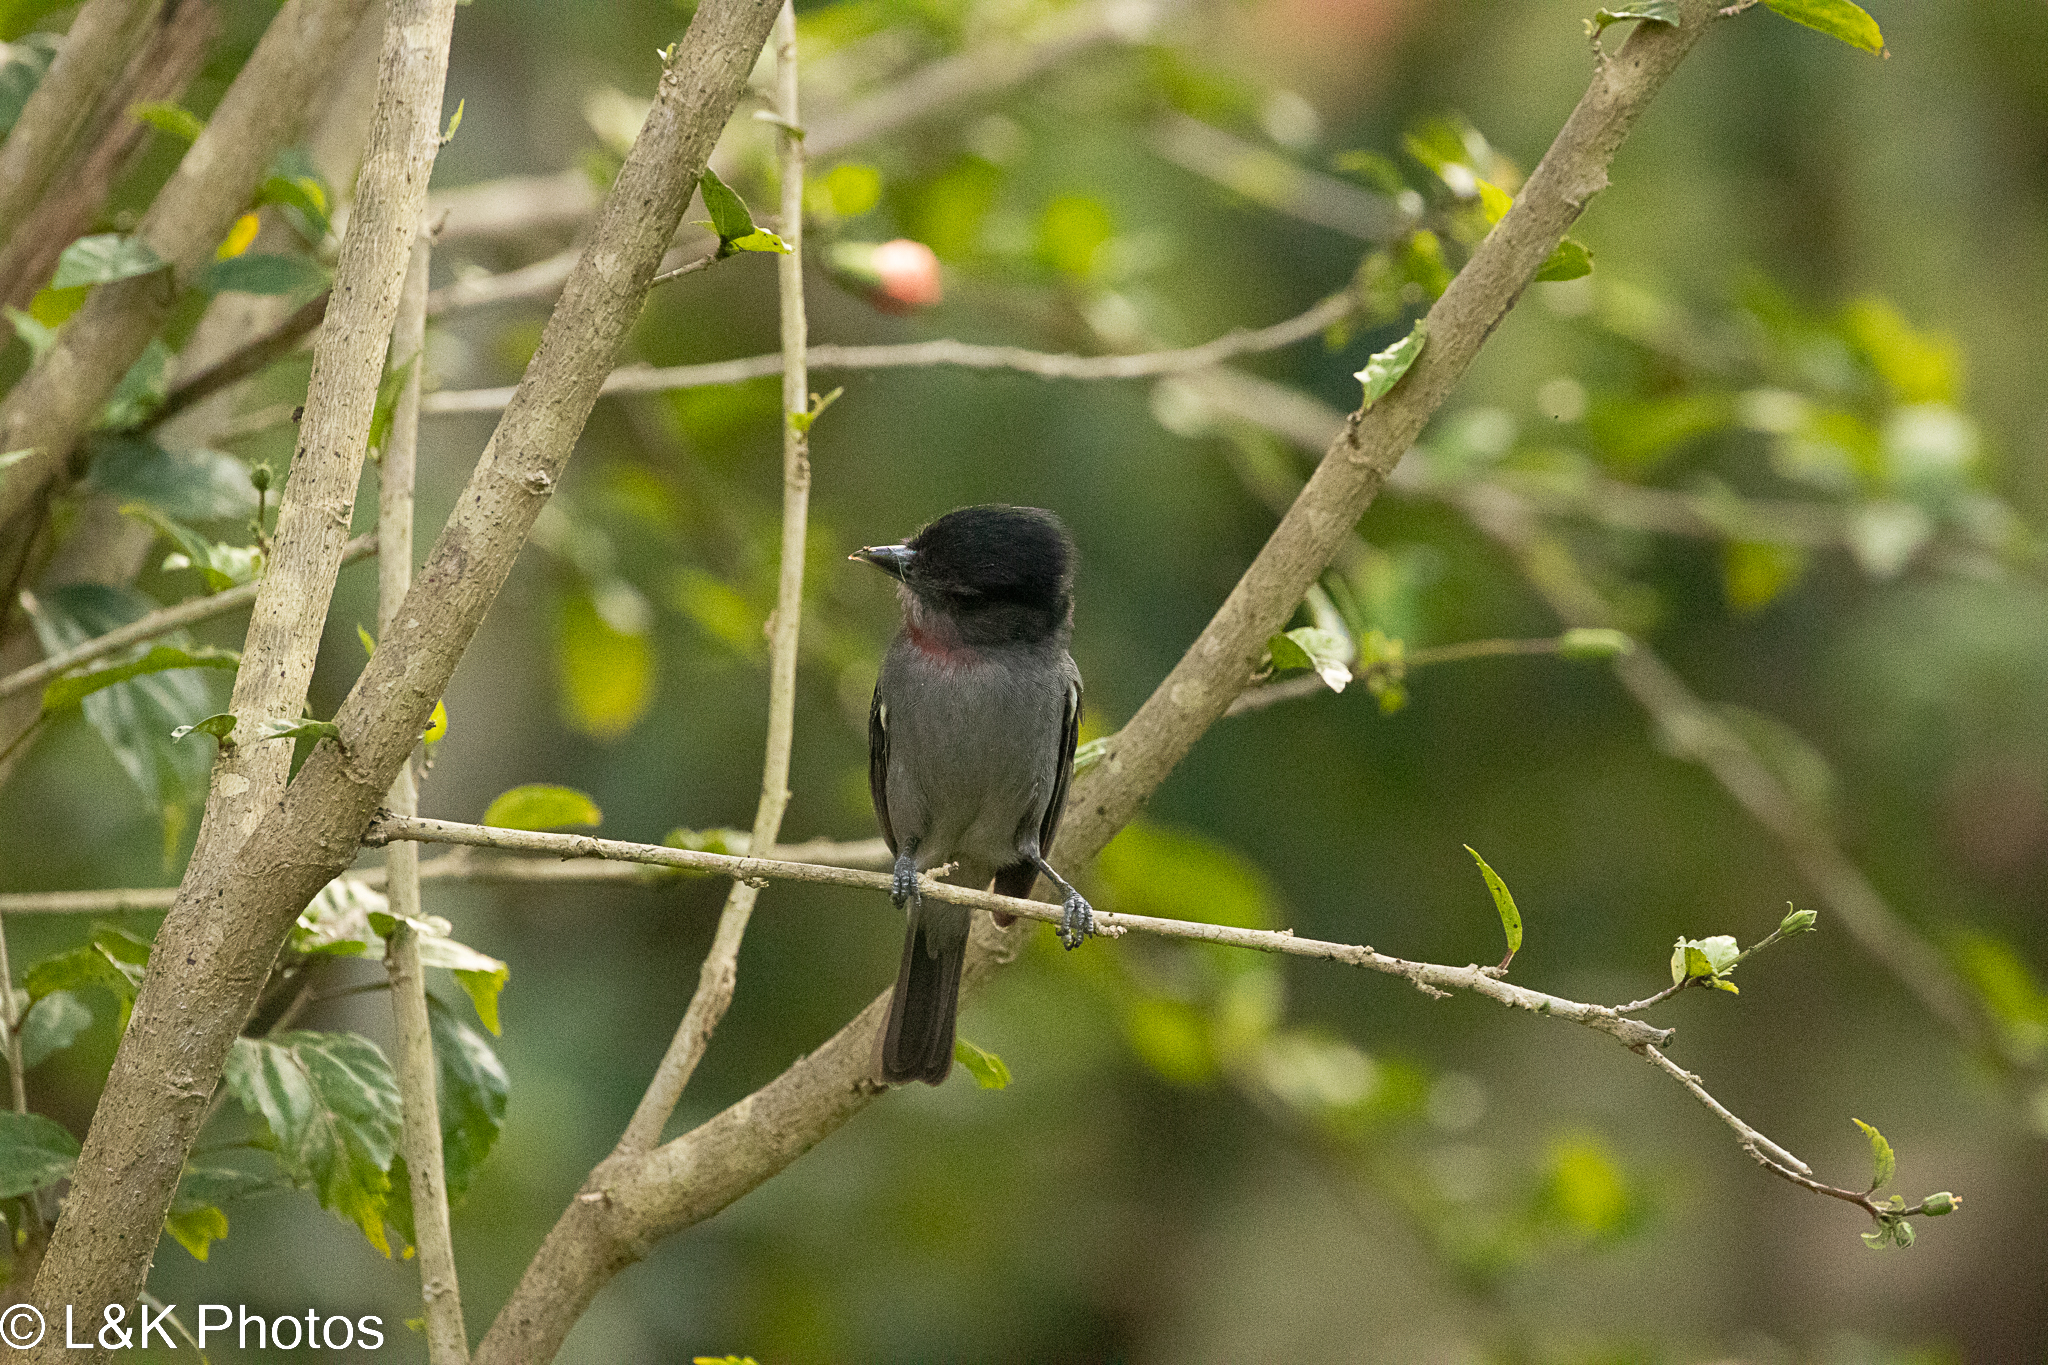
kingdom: Animalia
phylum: Chordata
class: Aves
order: Passeriformes
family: Cotingidae
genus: Pachyramphus
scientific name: Pachyramphus aglaiae
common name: Rose-throated becard
